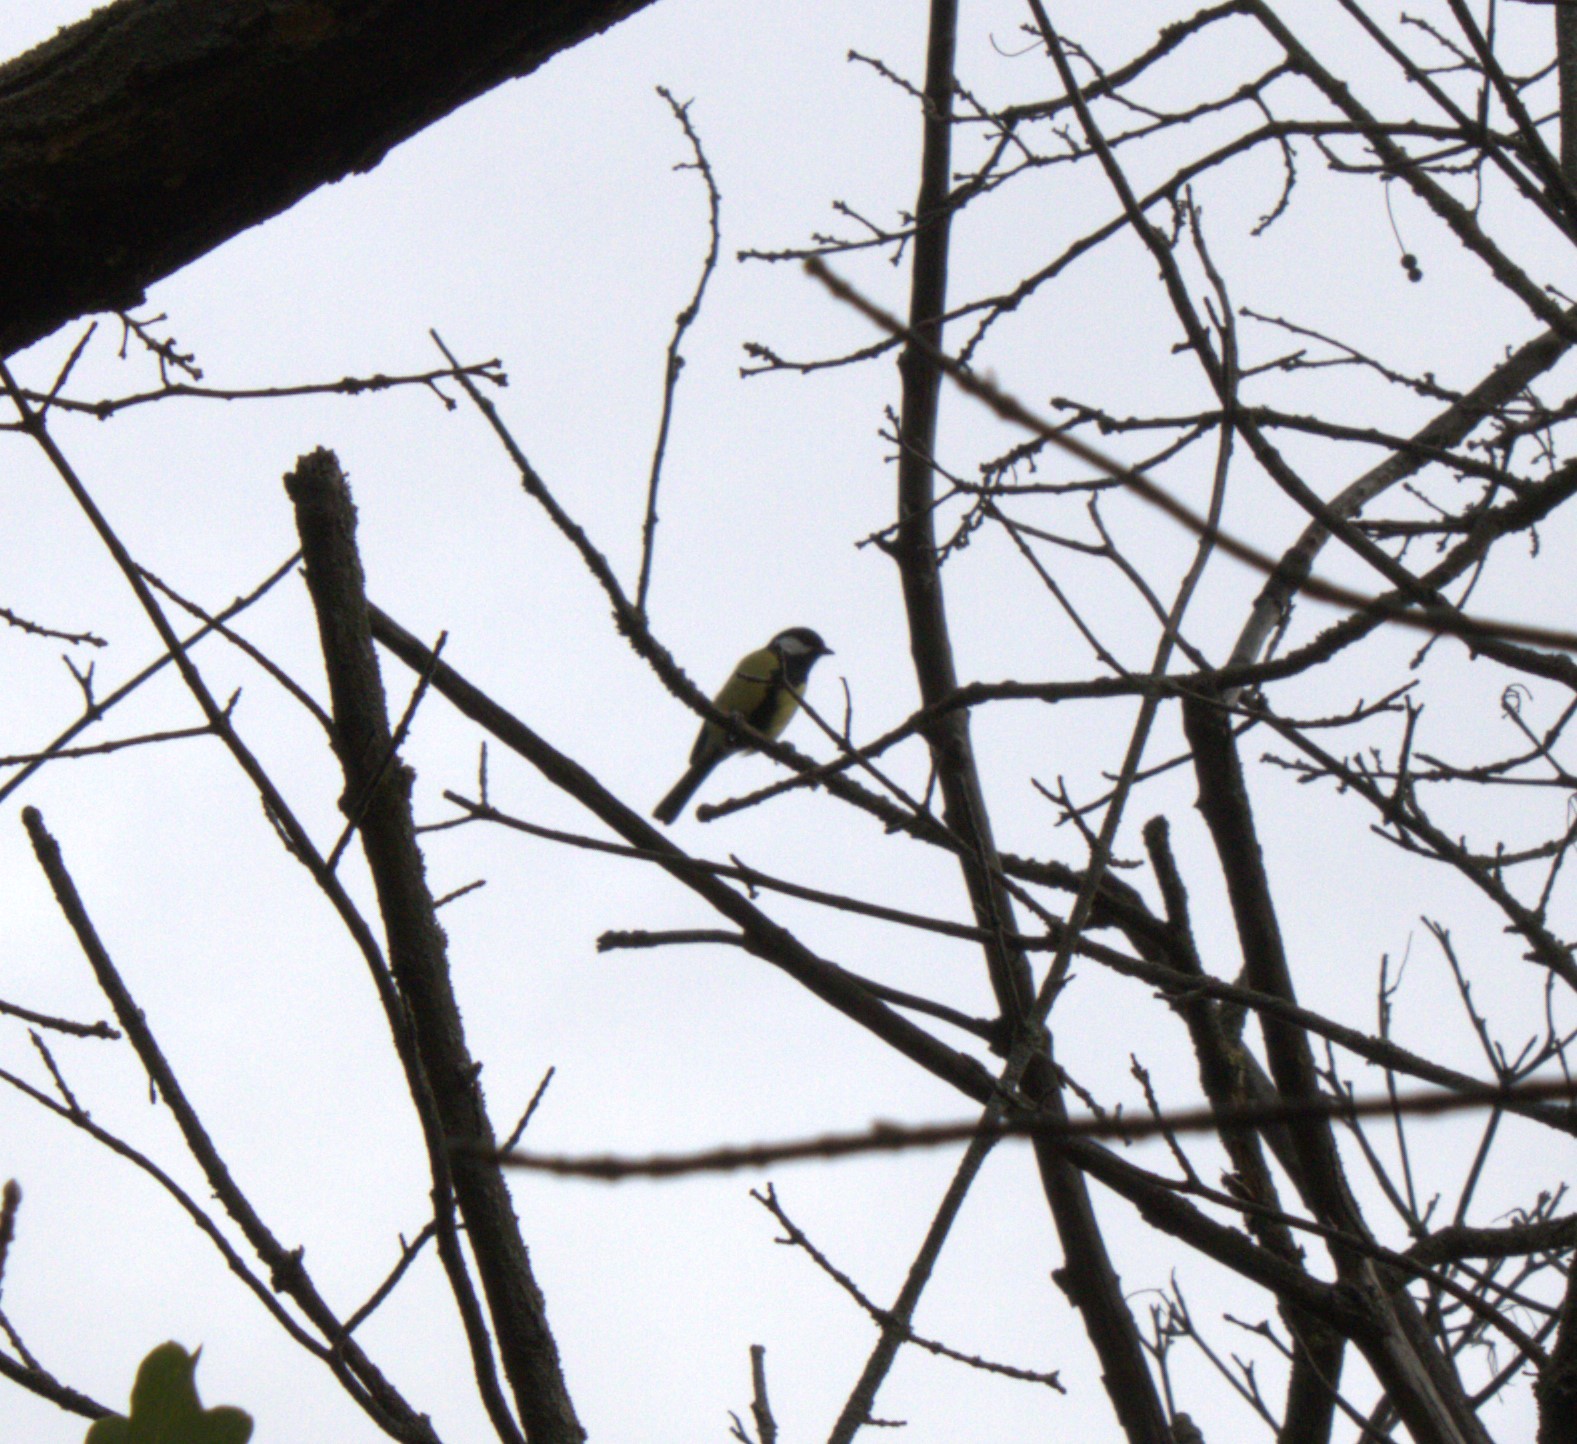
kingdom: Animalia
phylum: Chordata
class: Aves
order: Passeriformes
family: Paridae
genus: Parus
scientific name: Parus major
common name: Great tit
